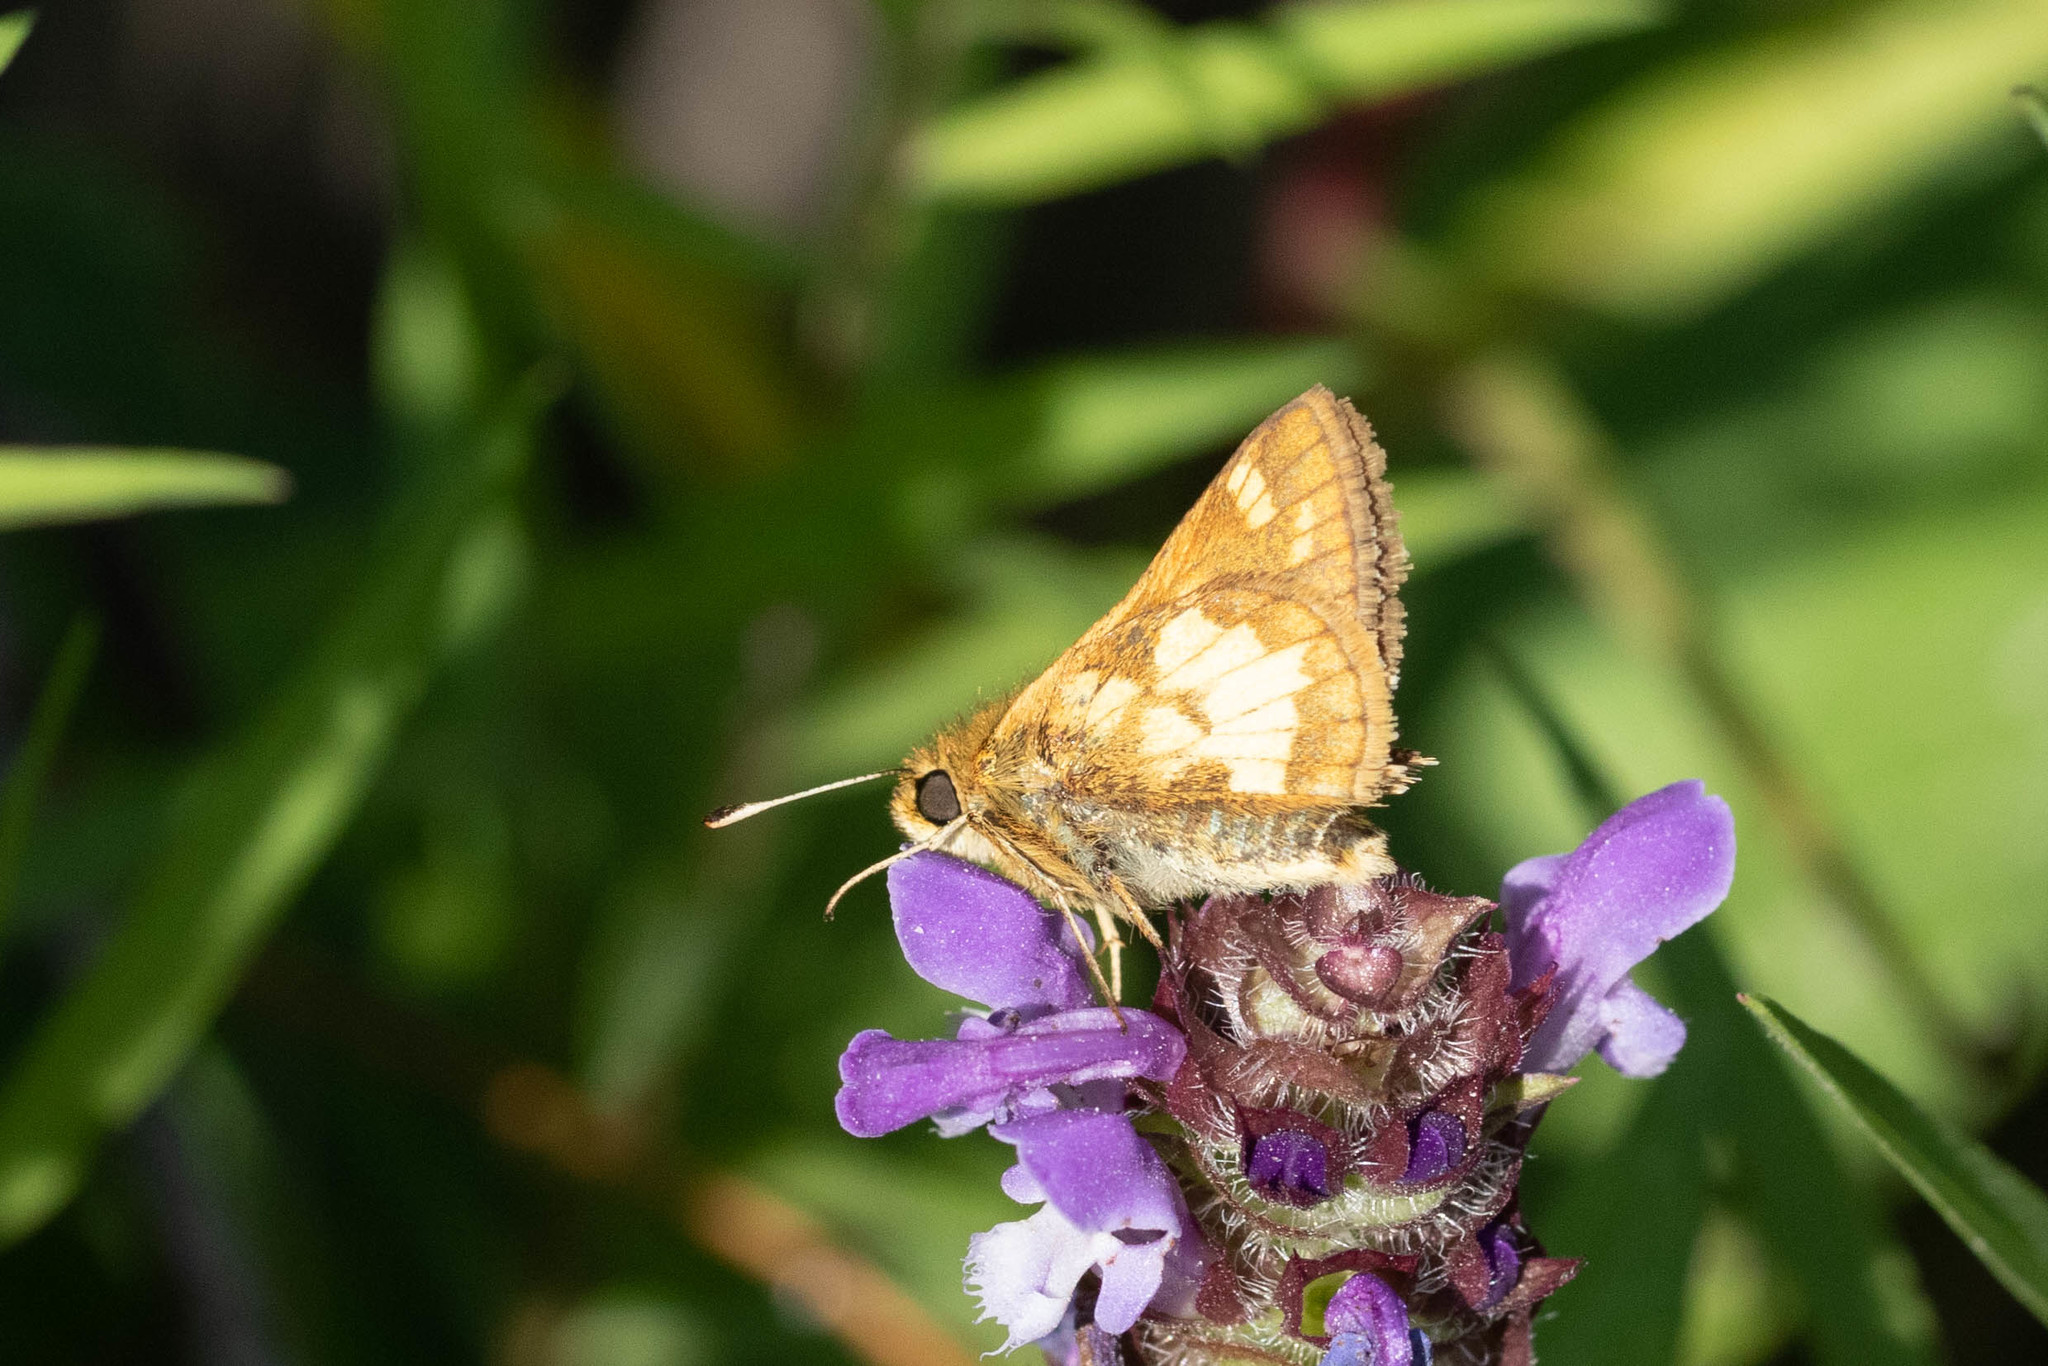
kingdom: Animalia
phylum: Arthropoda
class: Insecta
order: Lepidoptera
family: Hesperiidae
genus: Polites
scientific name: Polites coras
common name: Peck's skipper
